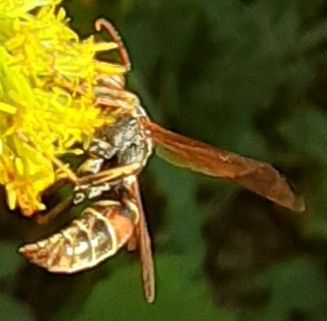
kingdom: Animalia
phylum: Arthropoda
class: Insecta
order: Hymenoptera
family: Eumenidae
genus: Polistes
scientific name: Polistes fuscatus
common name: Dark paper wasp
